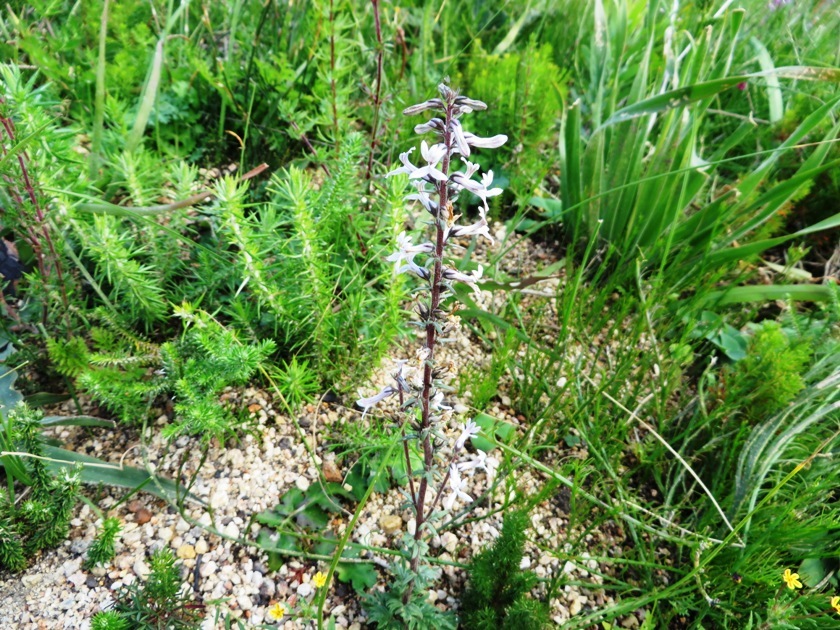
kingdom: Plantae
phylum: Tracheophyta
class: Magnoliopsida
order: Asterales
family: Campanulaceae
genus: Cyphia
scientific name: Cyphia bulbosa
